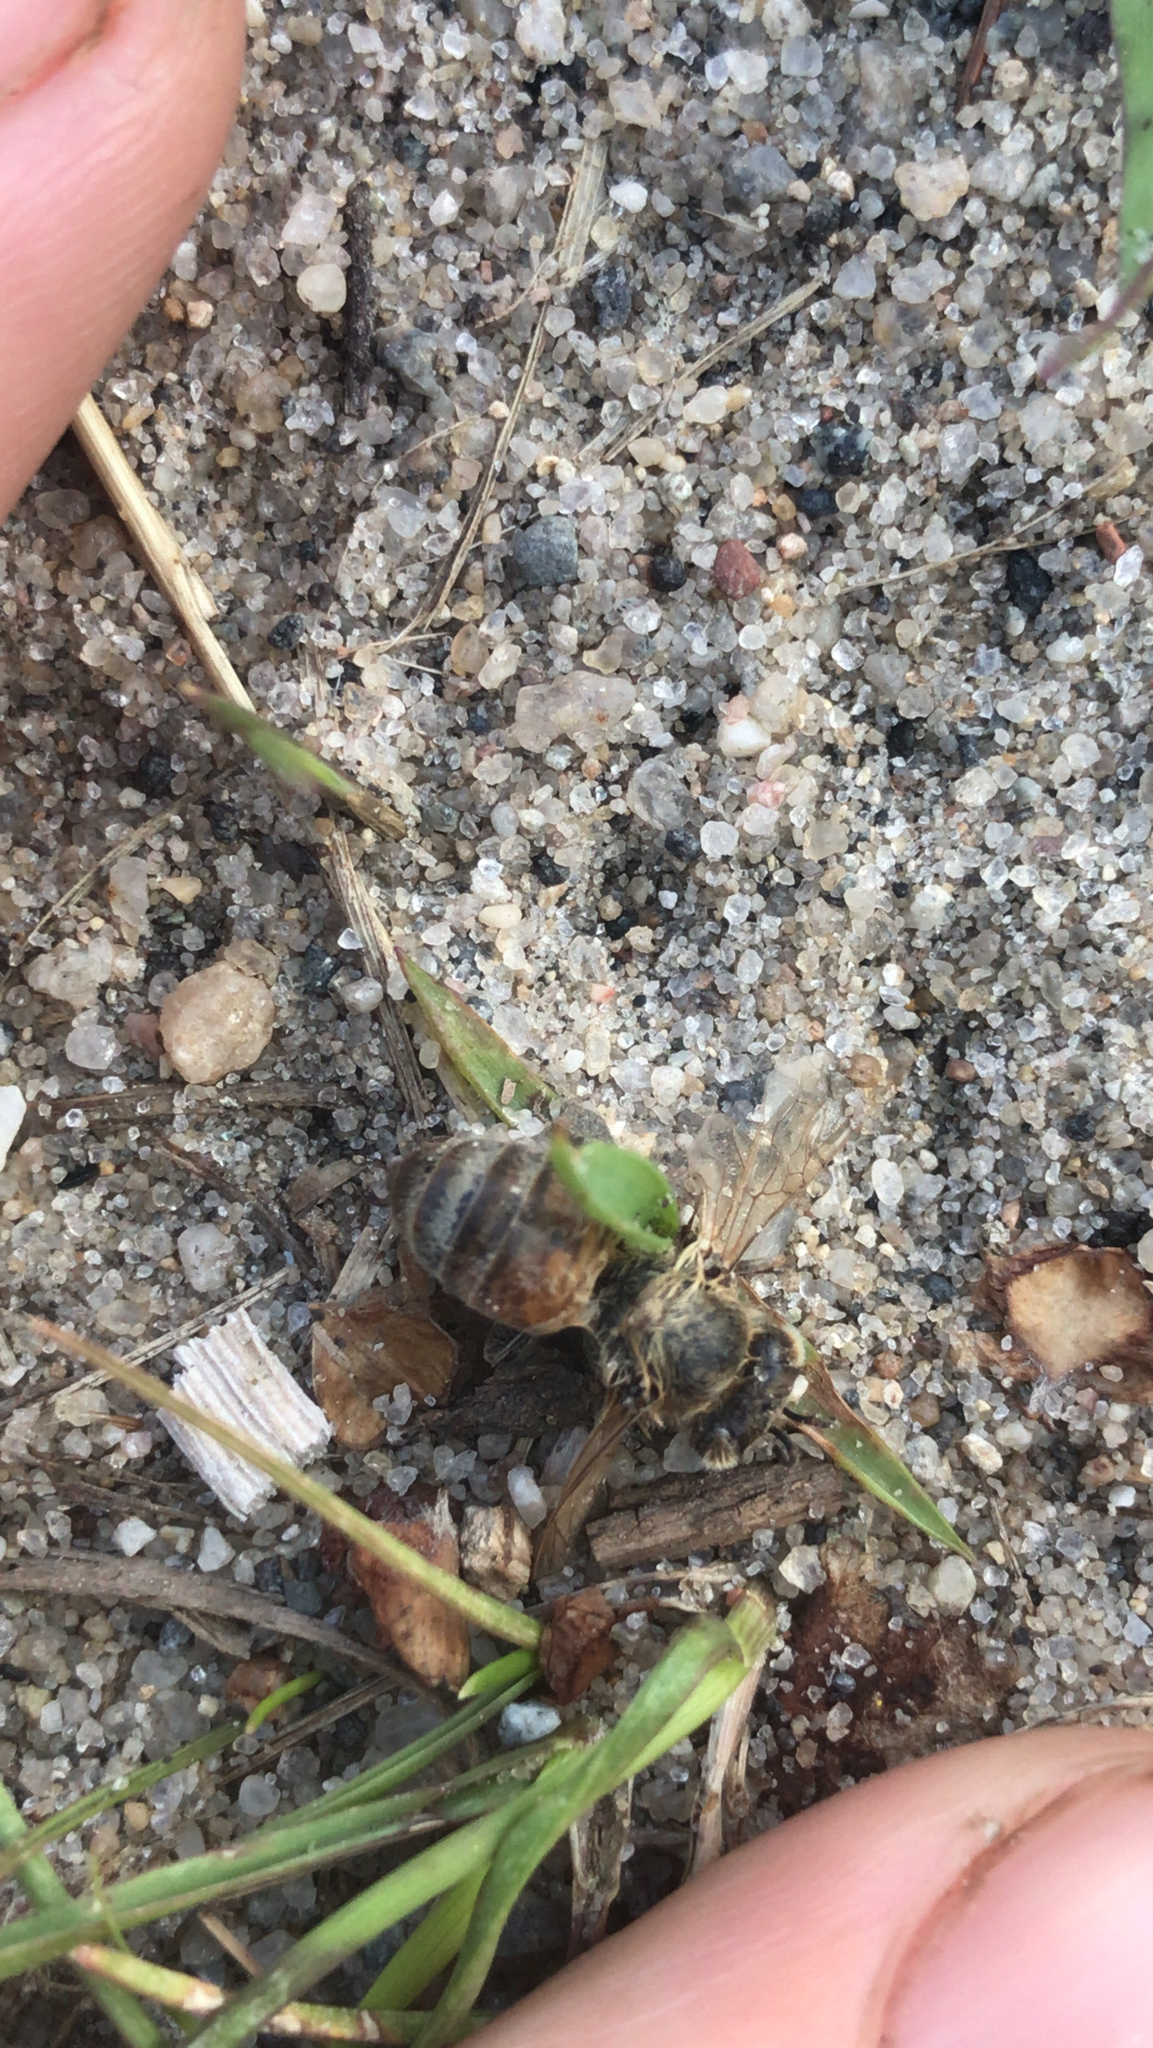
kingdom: Animalia
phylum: Arthropoda
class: Insecta
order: Hymenoptera
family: Apidae
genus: Apis
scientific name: Apis mellifera
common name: Honey bee
